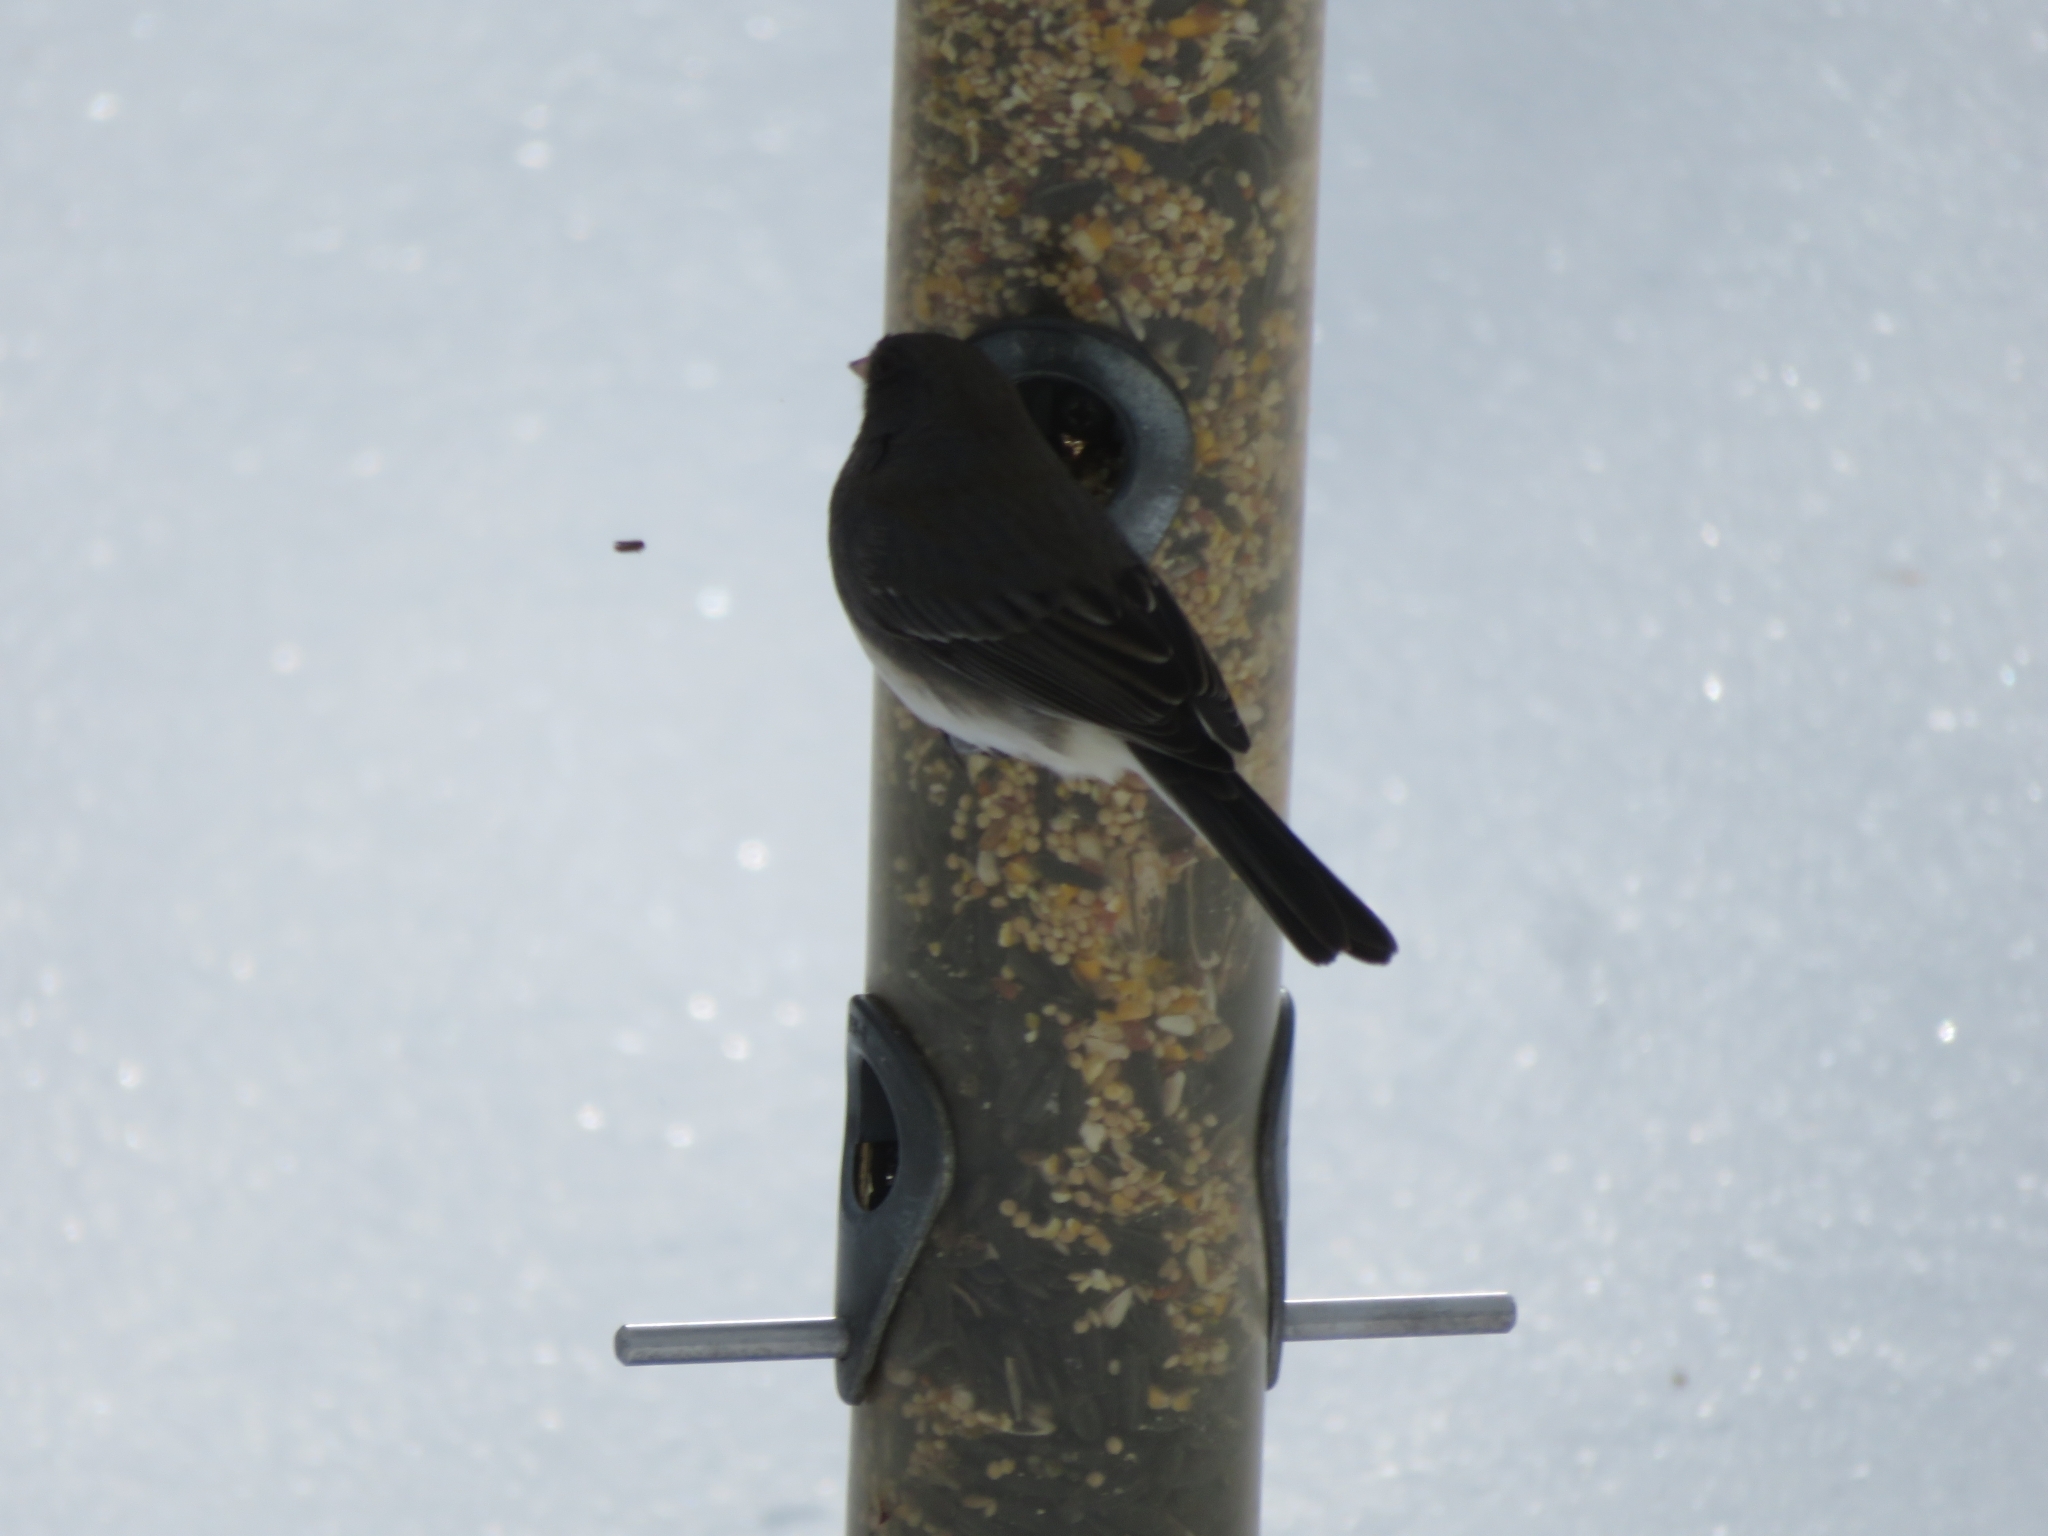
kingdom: Animalia
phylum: Chordata
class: Aves
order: Passeriformes
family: Passerellidae
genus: Junco
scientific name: Junco hyemalis
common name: Dark-eyed junco
